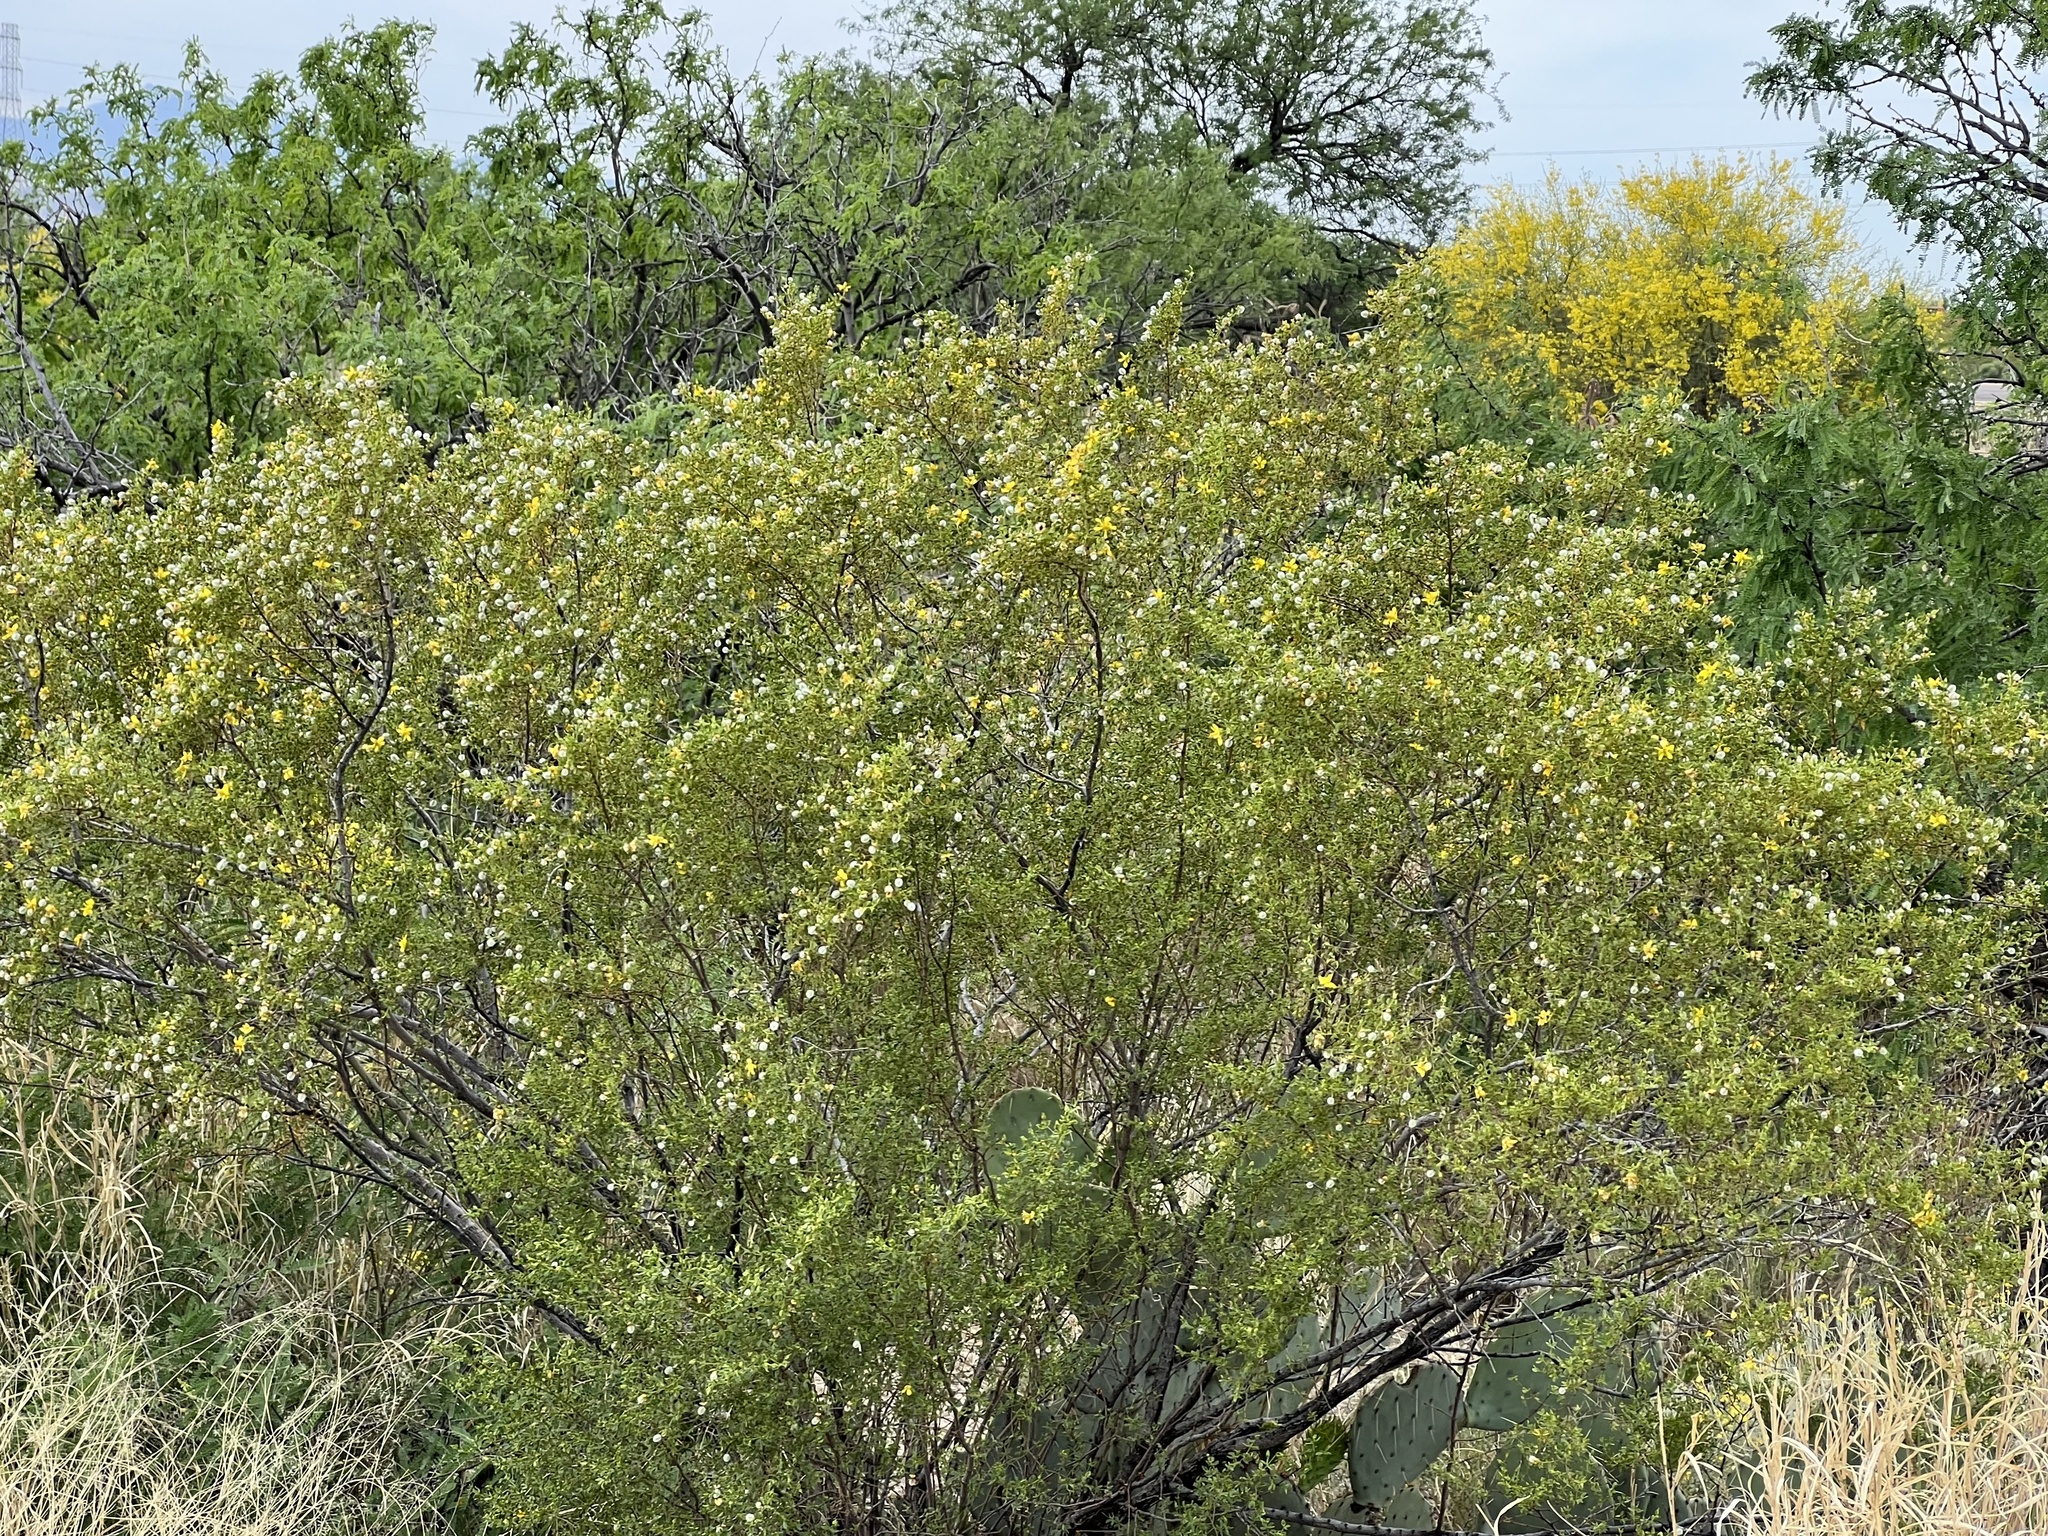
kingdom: Plantae
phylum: Tracheophyta
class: Magnoliopsida
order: Zygophyllales
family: Zygophyllaceae
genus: Larrea
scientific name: Larrea tridentata
